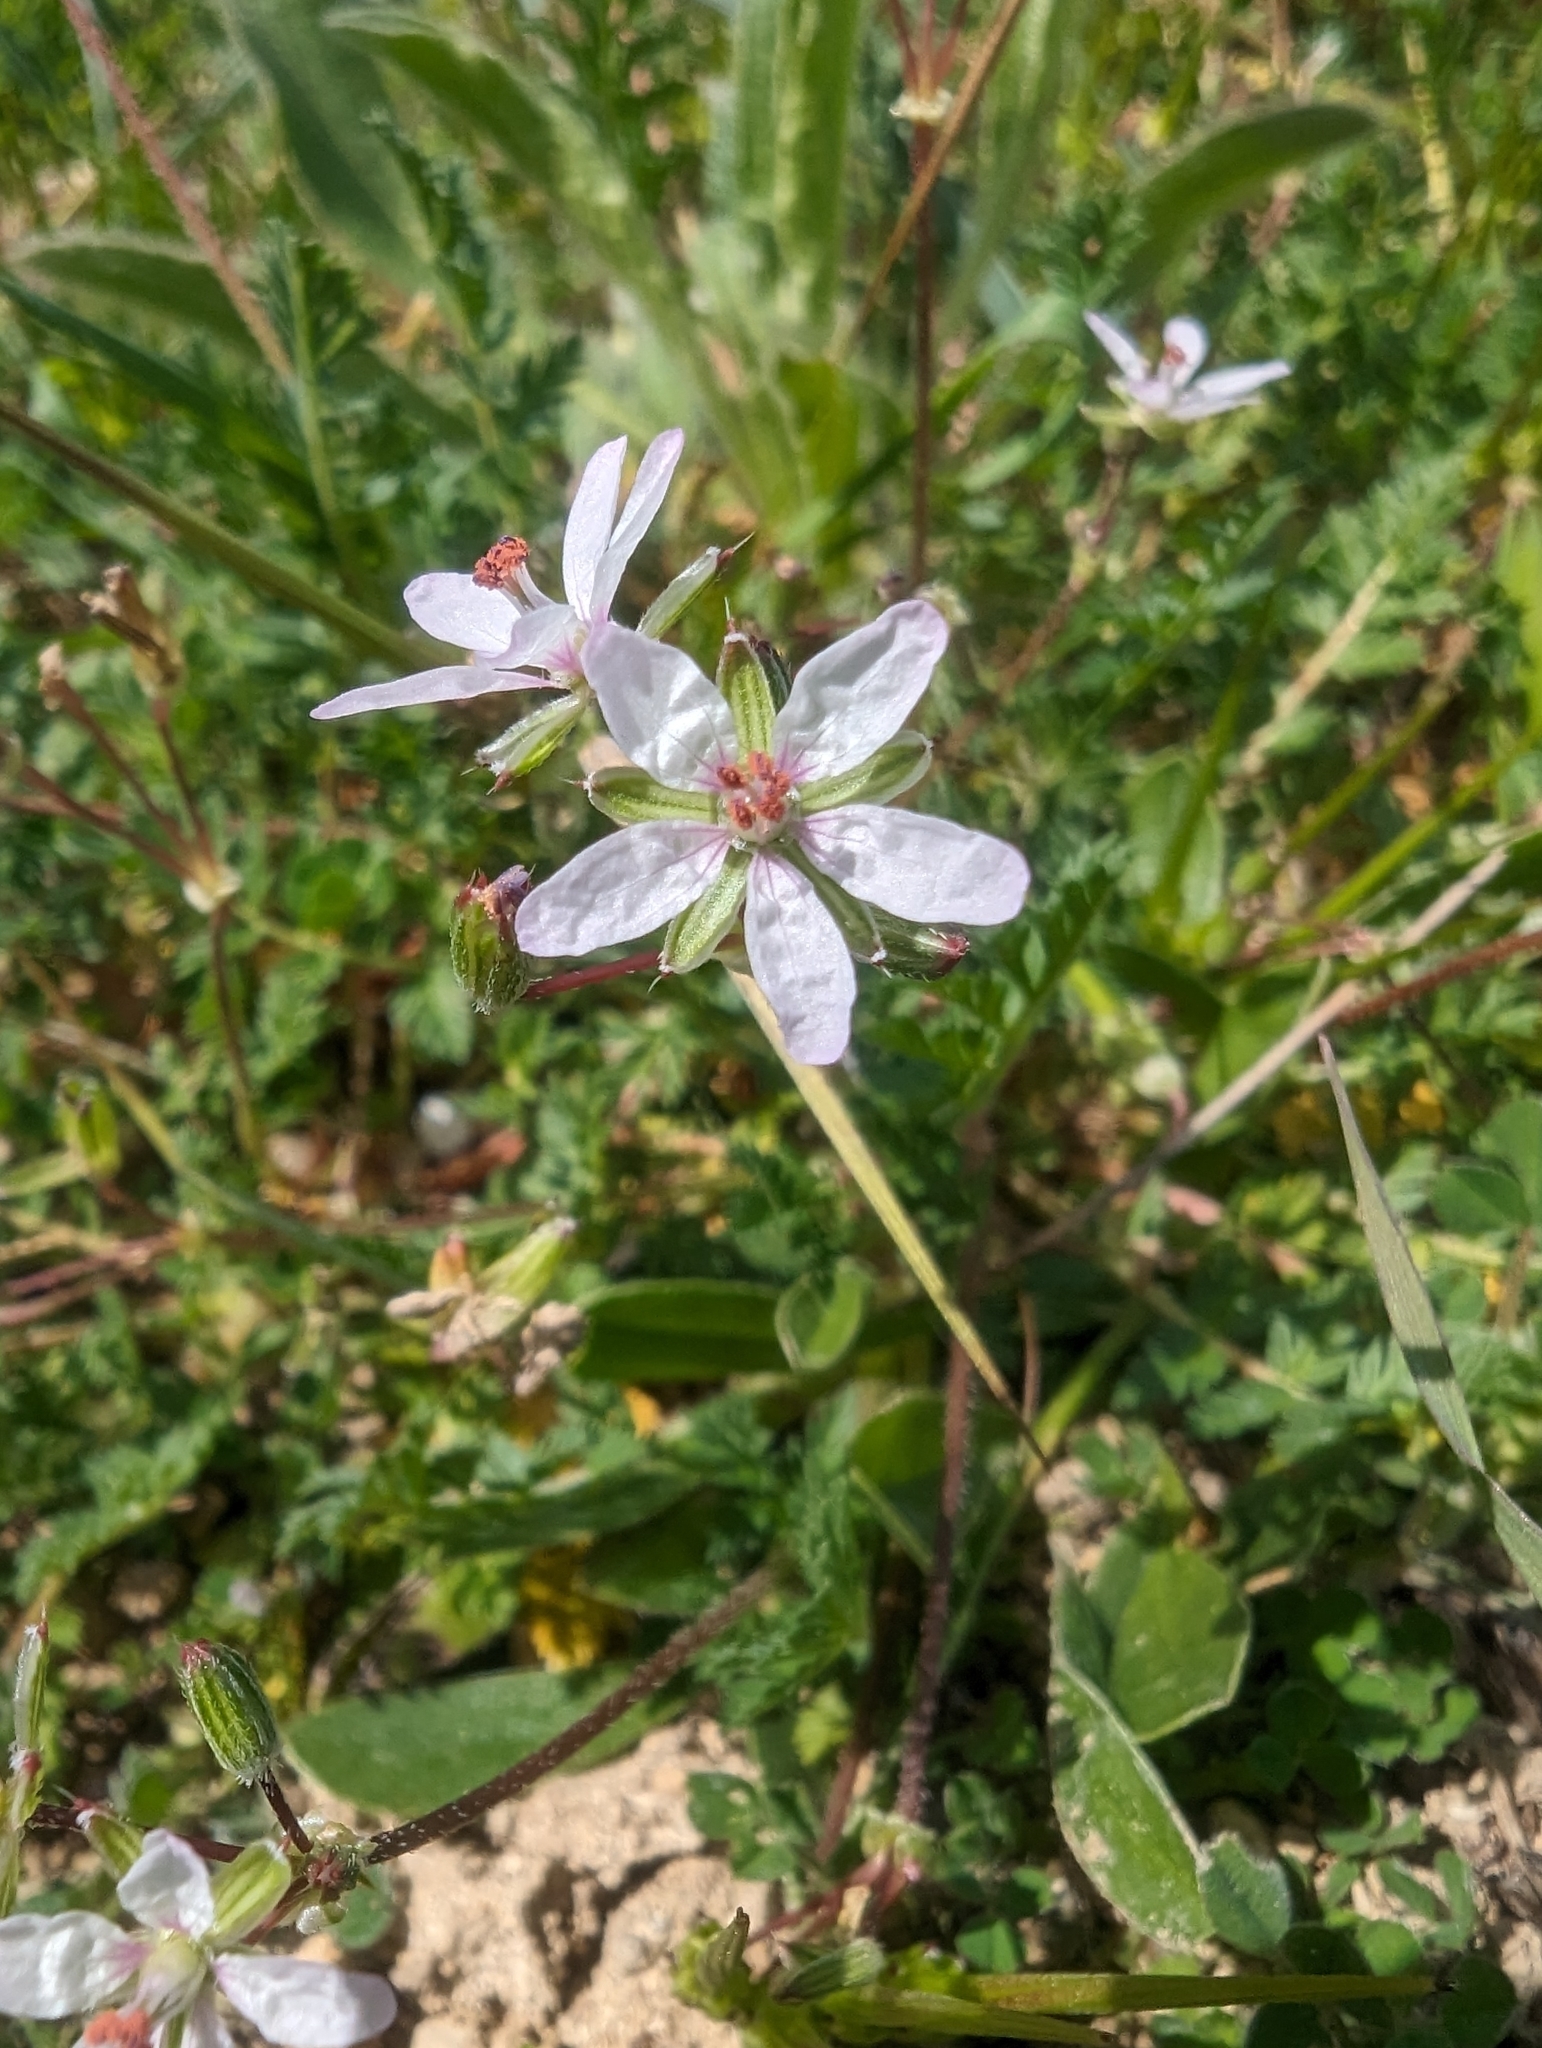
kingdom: Plantae
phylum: Tracheophyta
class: Magnoliopsida
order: Geraniales
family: Geraniaceae
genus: Erodium
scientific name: Erodium cicutarium
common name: Common stork's-bill
